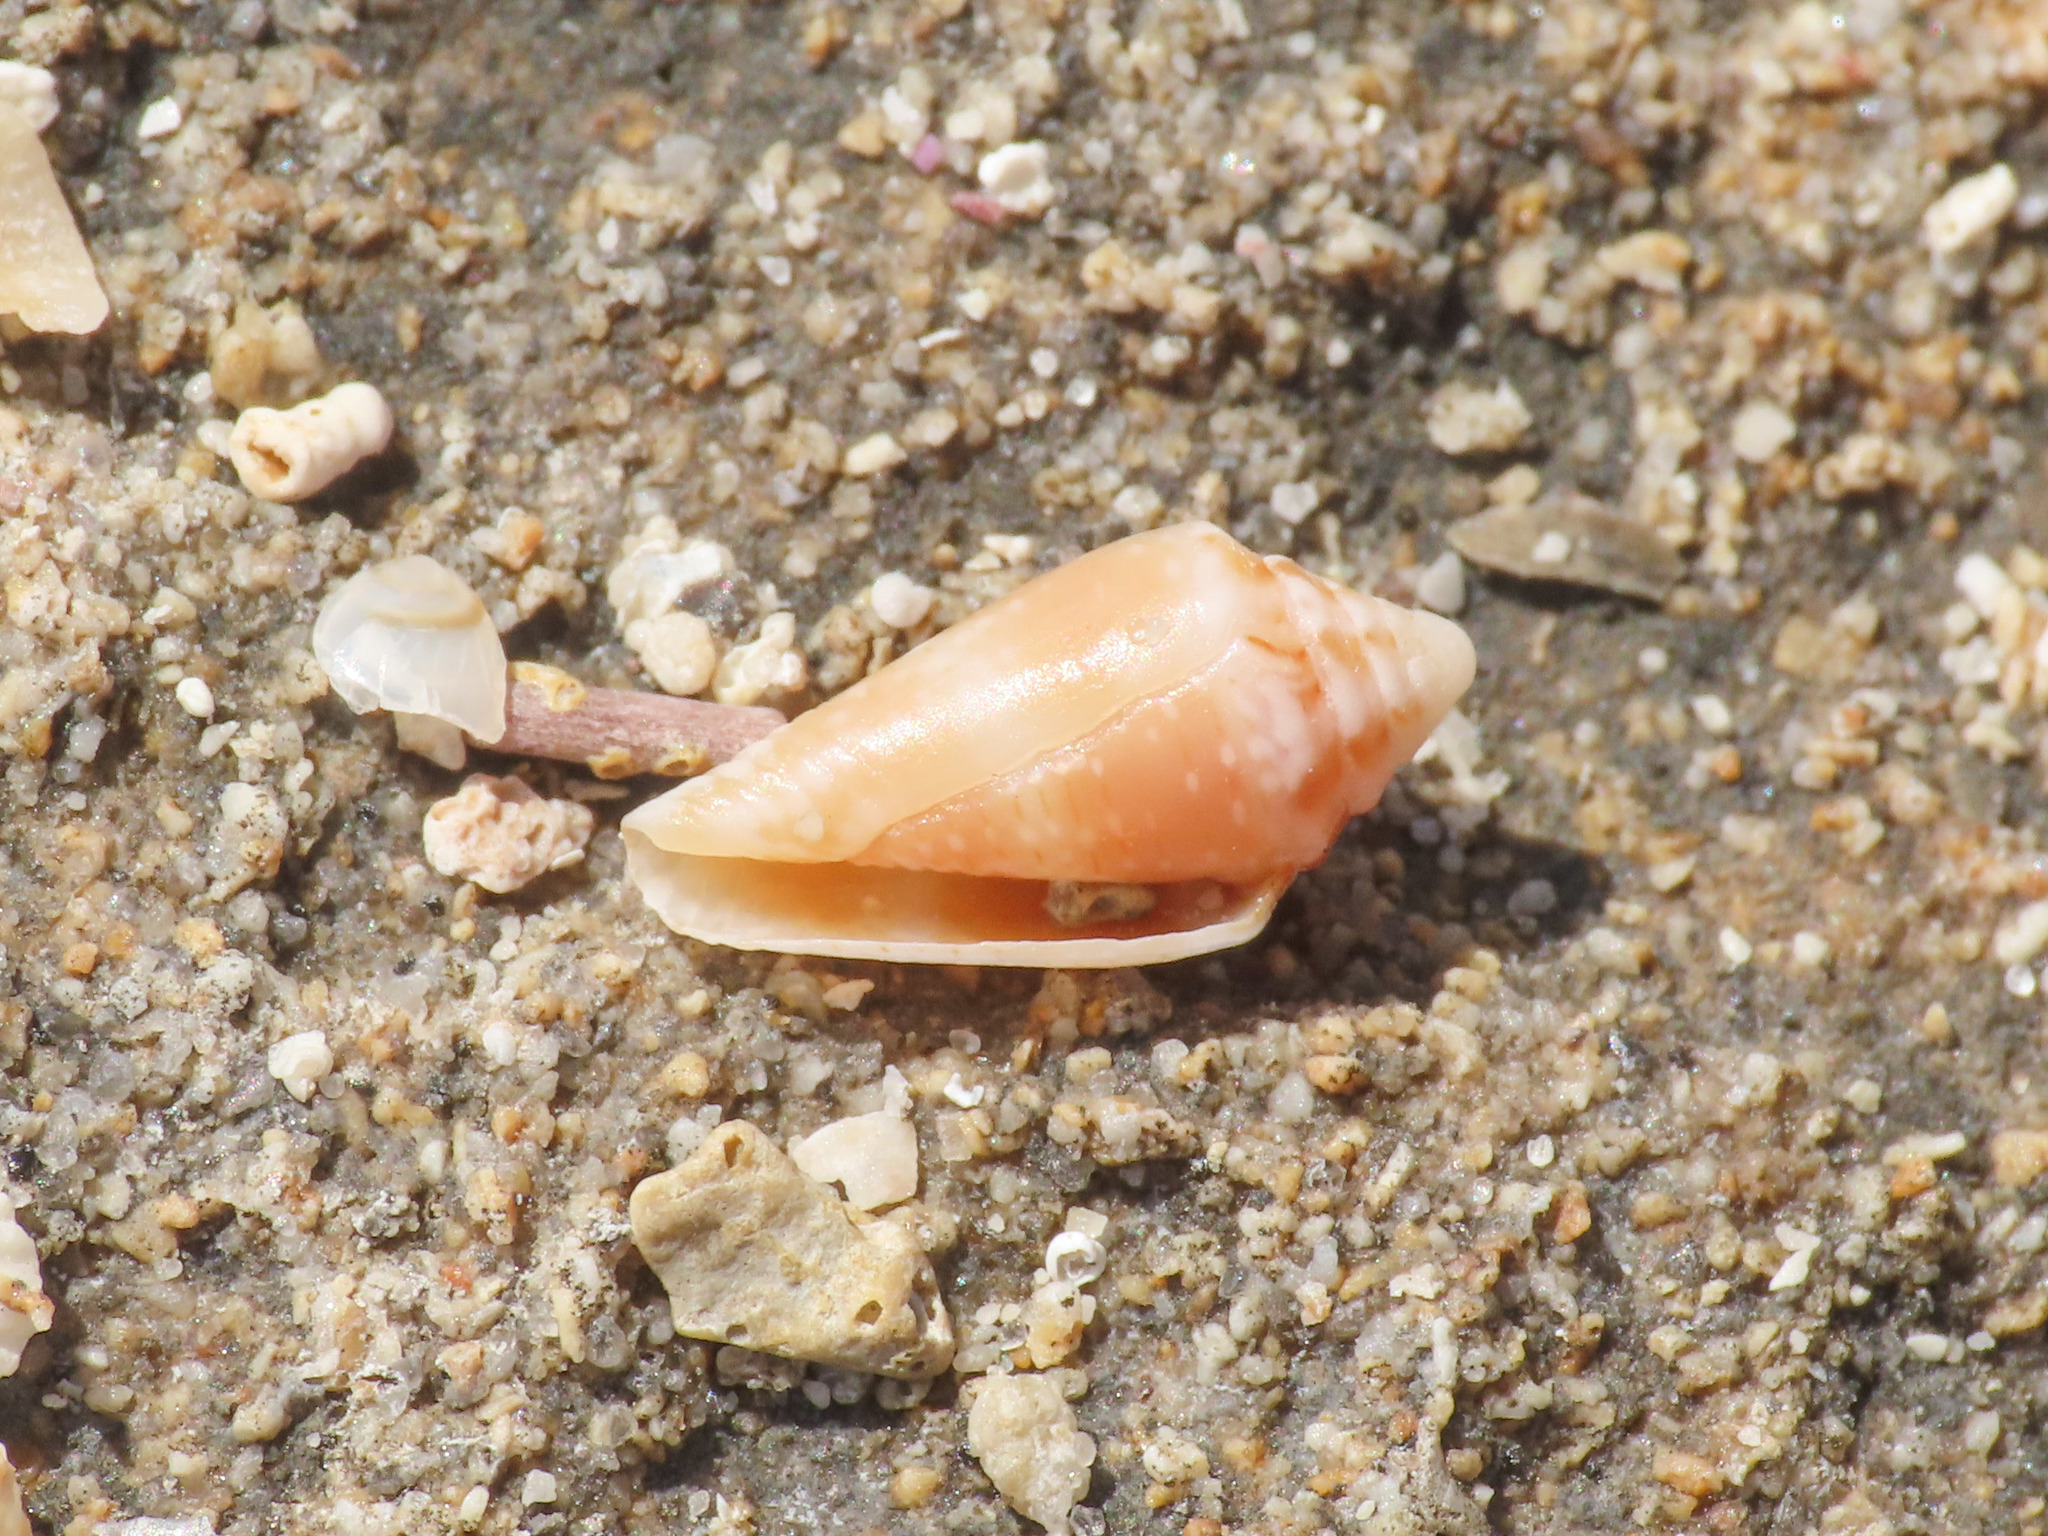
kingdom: Animalia
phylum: Mollusca
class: Gastropoda
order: Neogastropoda
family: Conidae
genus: Conus
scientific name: Conus ventricosus
